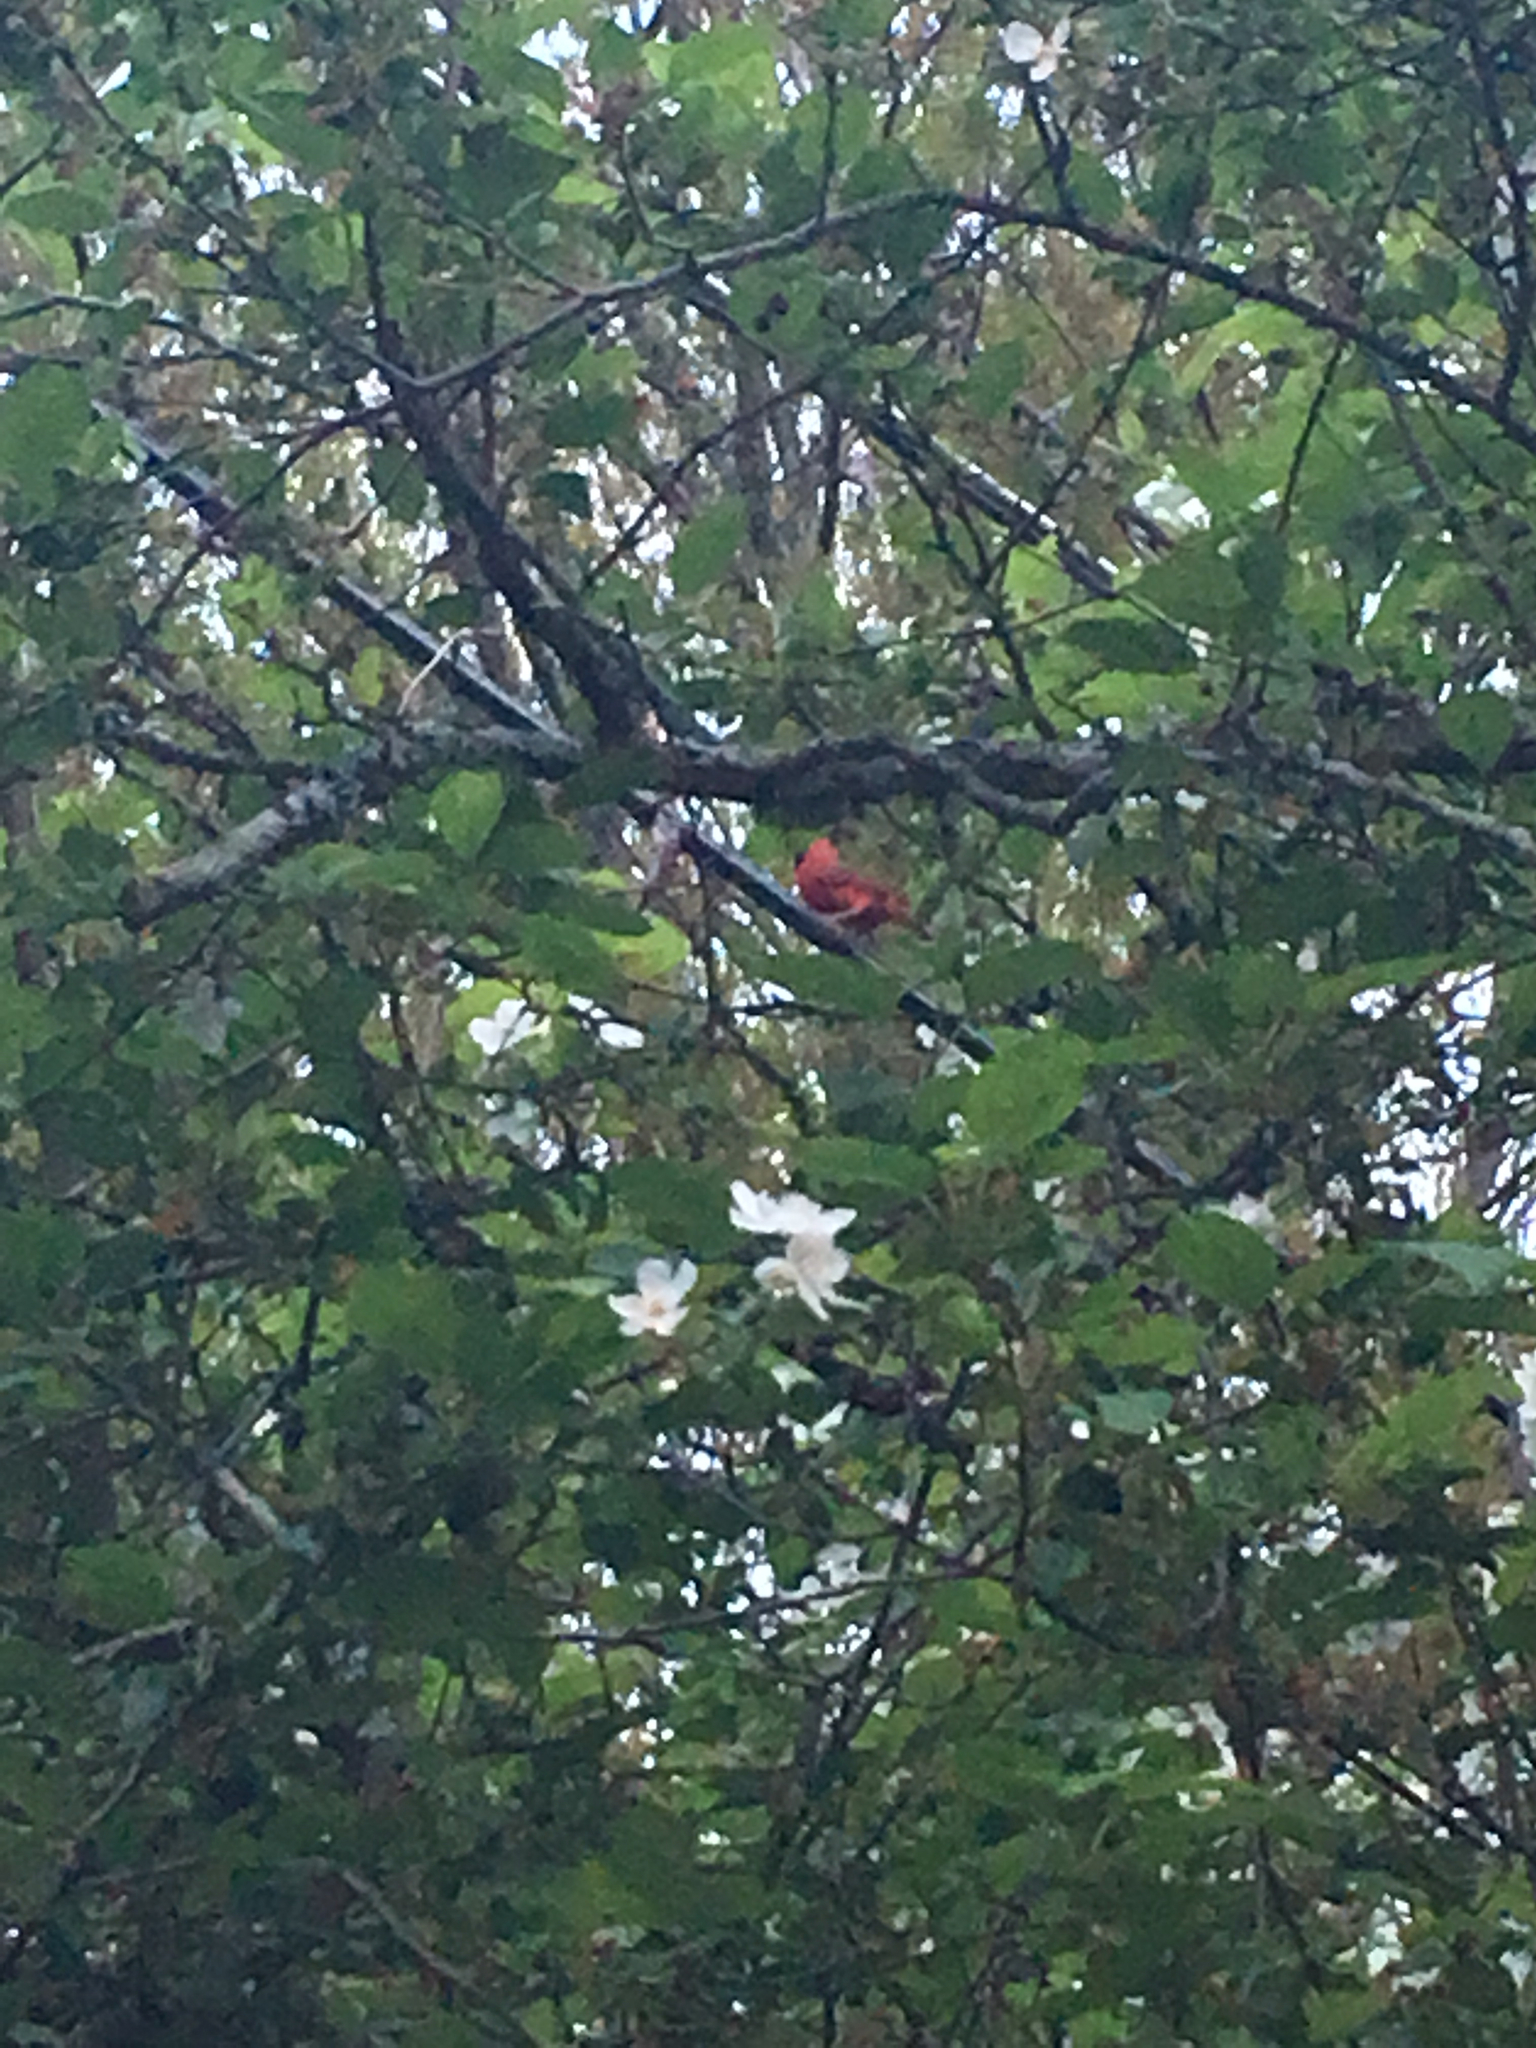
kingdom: Animalia
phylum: Chordata
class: Aves
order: Passeriformes
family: Cardinalidae
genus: Cardinalis
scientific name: Cardinalis cardinalis
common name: Northern cardinal
